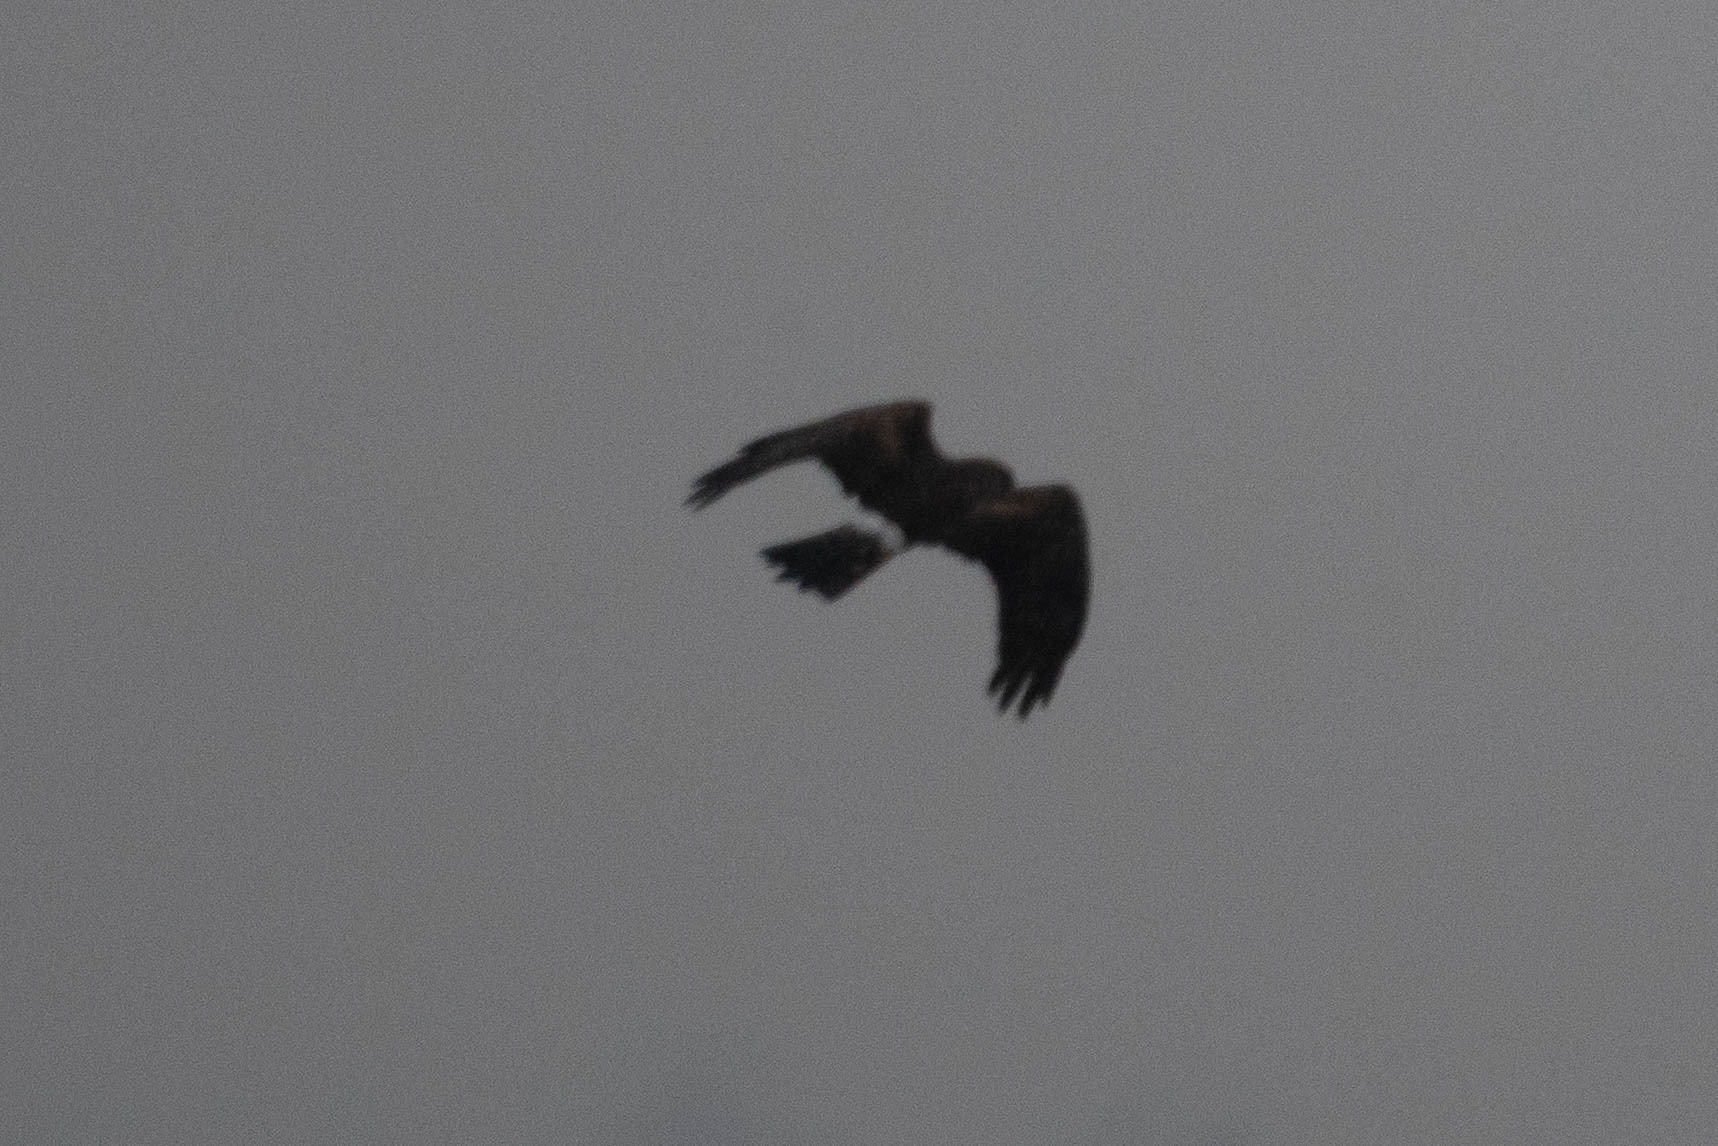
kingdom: Animalia
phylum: Chordata
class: Aves
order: Accipitriformes
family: Accipitridae
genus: Circus
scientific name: Circus cyaneus
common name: Hen harrier
